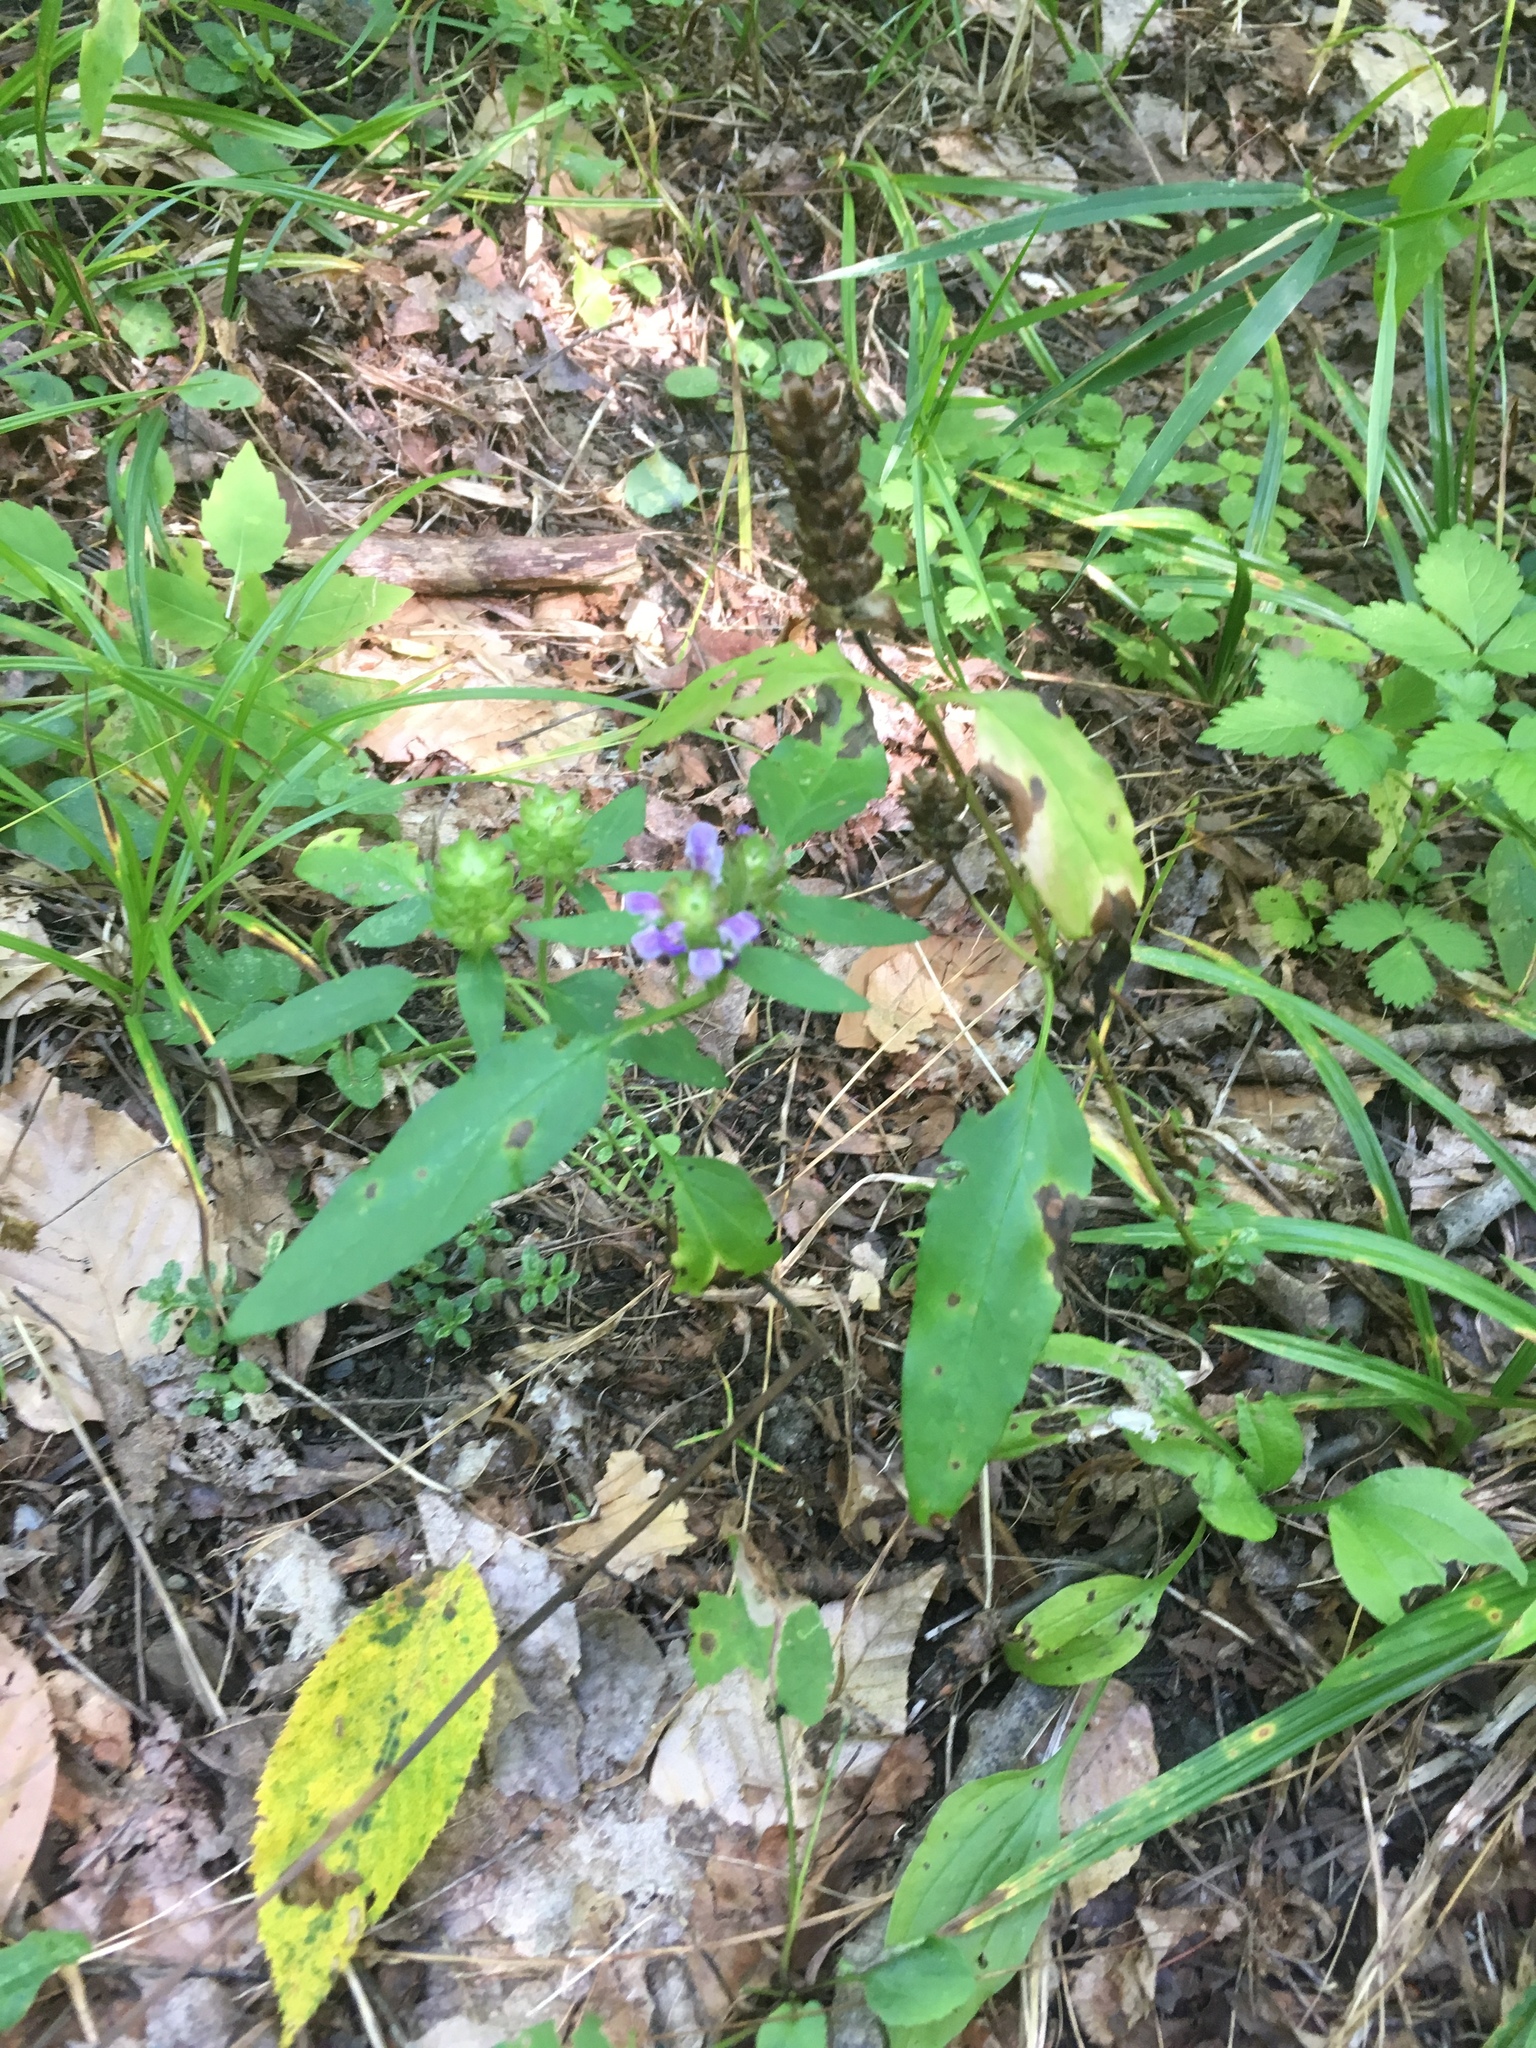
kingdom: Plantae
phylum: Tracheophyta
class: Magnoliopsida
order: Lamiales
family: Lamiaceae
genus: Prunella
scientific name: Prunella vulgaris
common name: Heal-all
